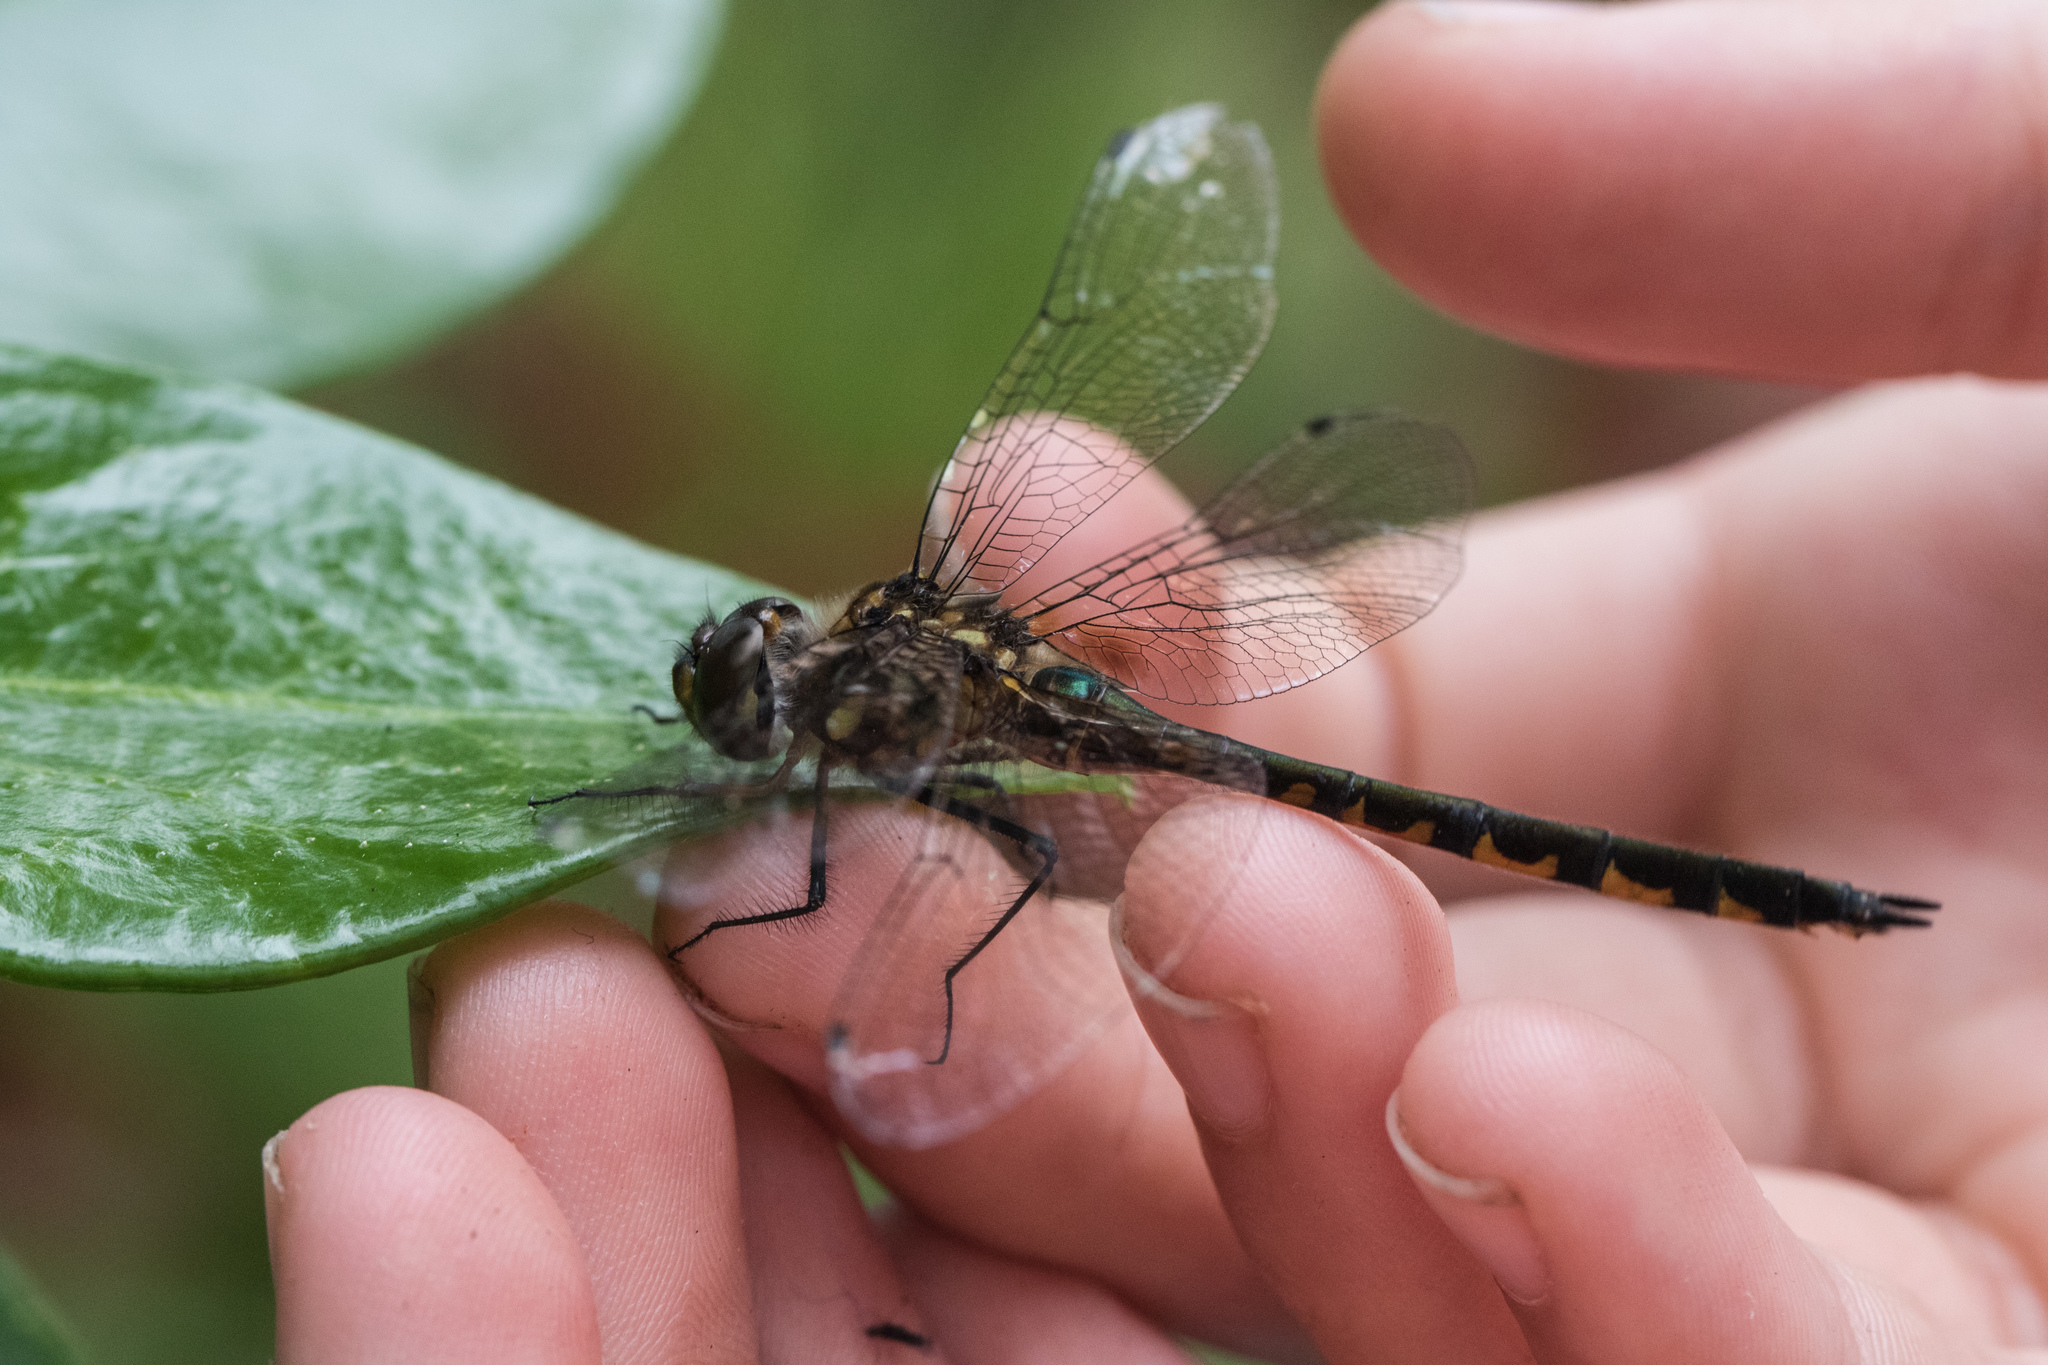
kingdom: Animalia
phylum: Arthropoda
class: Insecta
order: Odonata
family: Corduliidae
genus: Hemicordulia
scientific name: Hemicordulia australiae
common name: Sentry dragonfly
